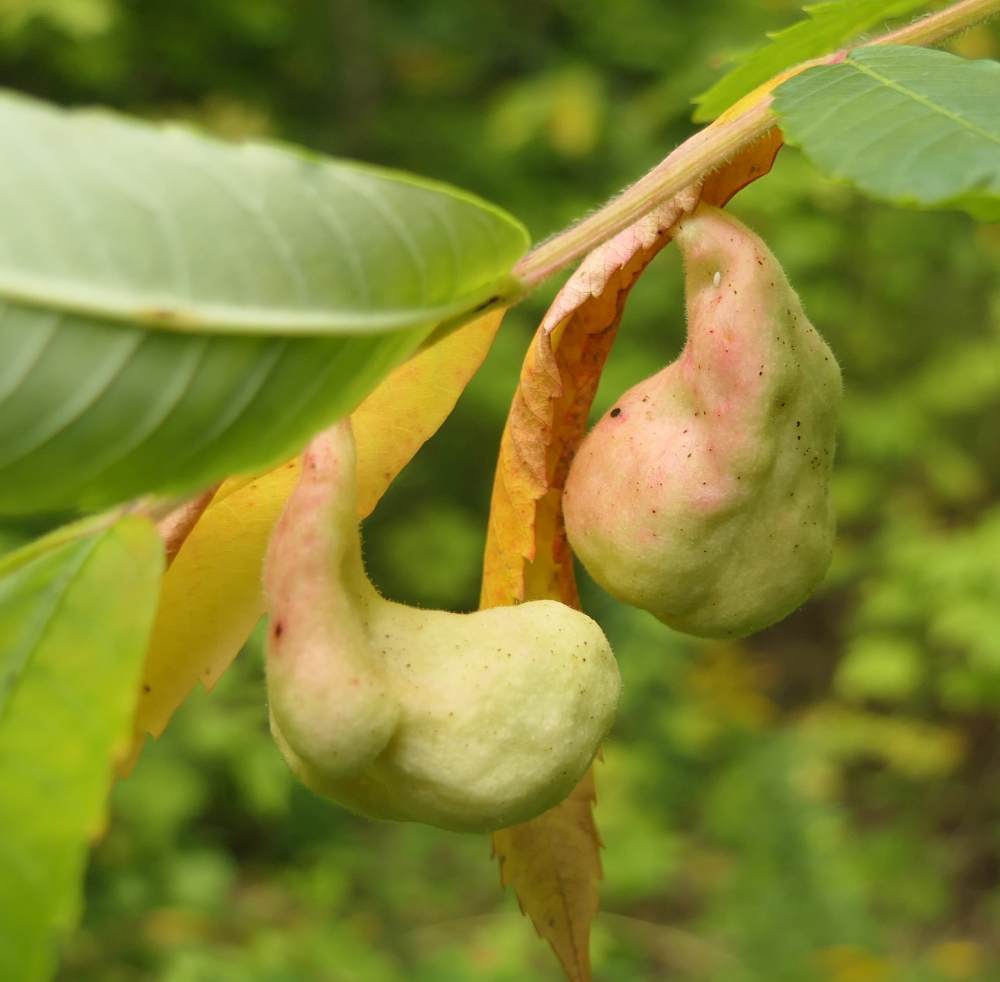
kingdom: Animalia
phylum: Arthropoda
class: Insecta
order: Hemiptera
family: Aphididae
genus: Melaphis
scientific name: Melaphis rhois
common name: Sumac gall aphid
